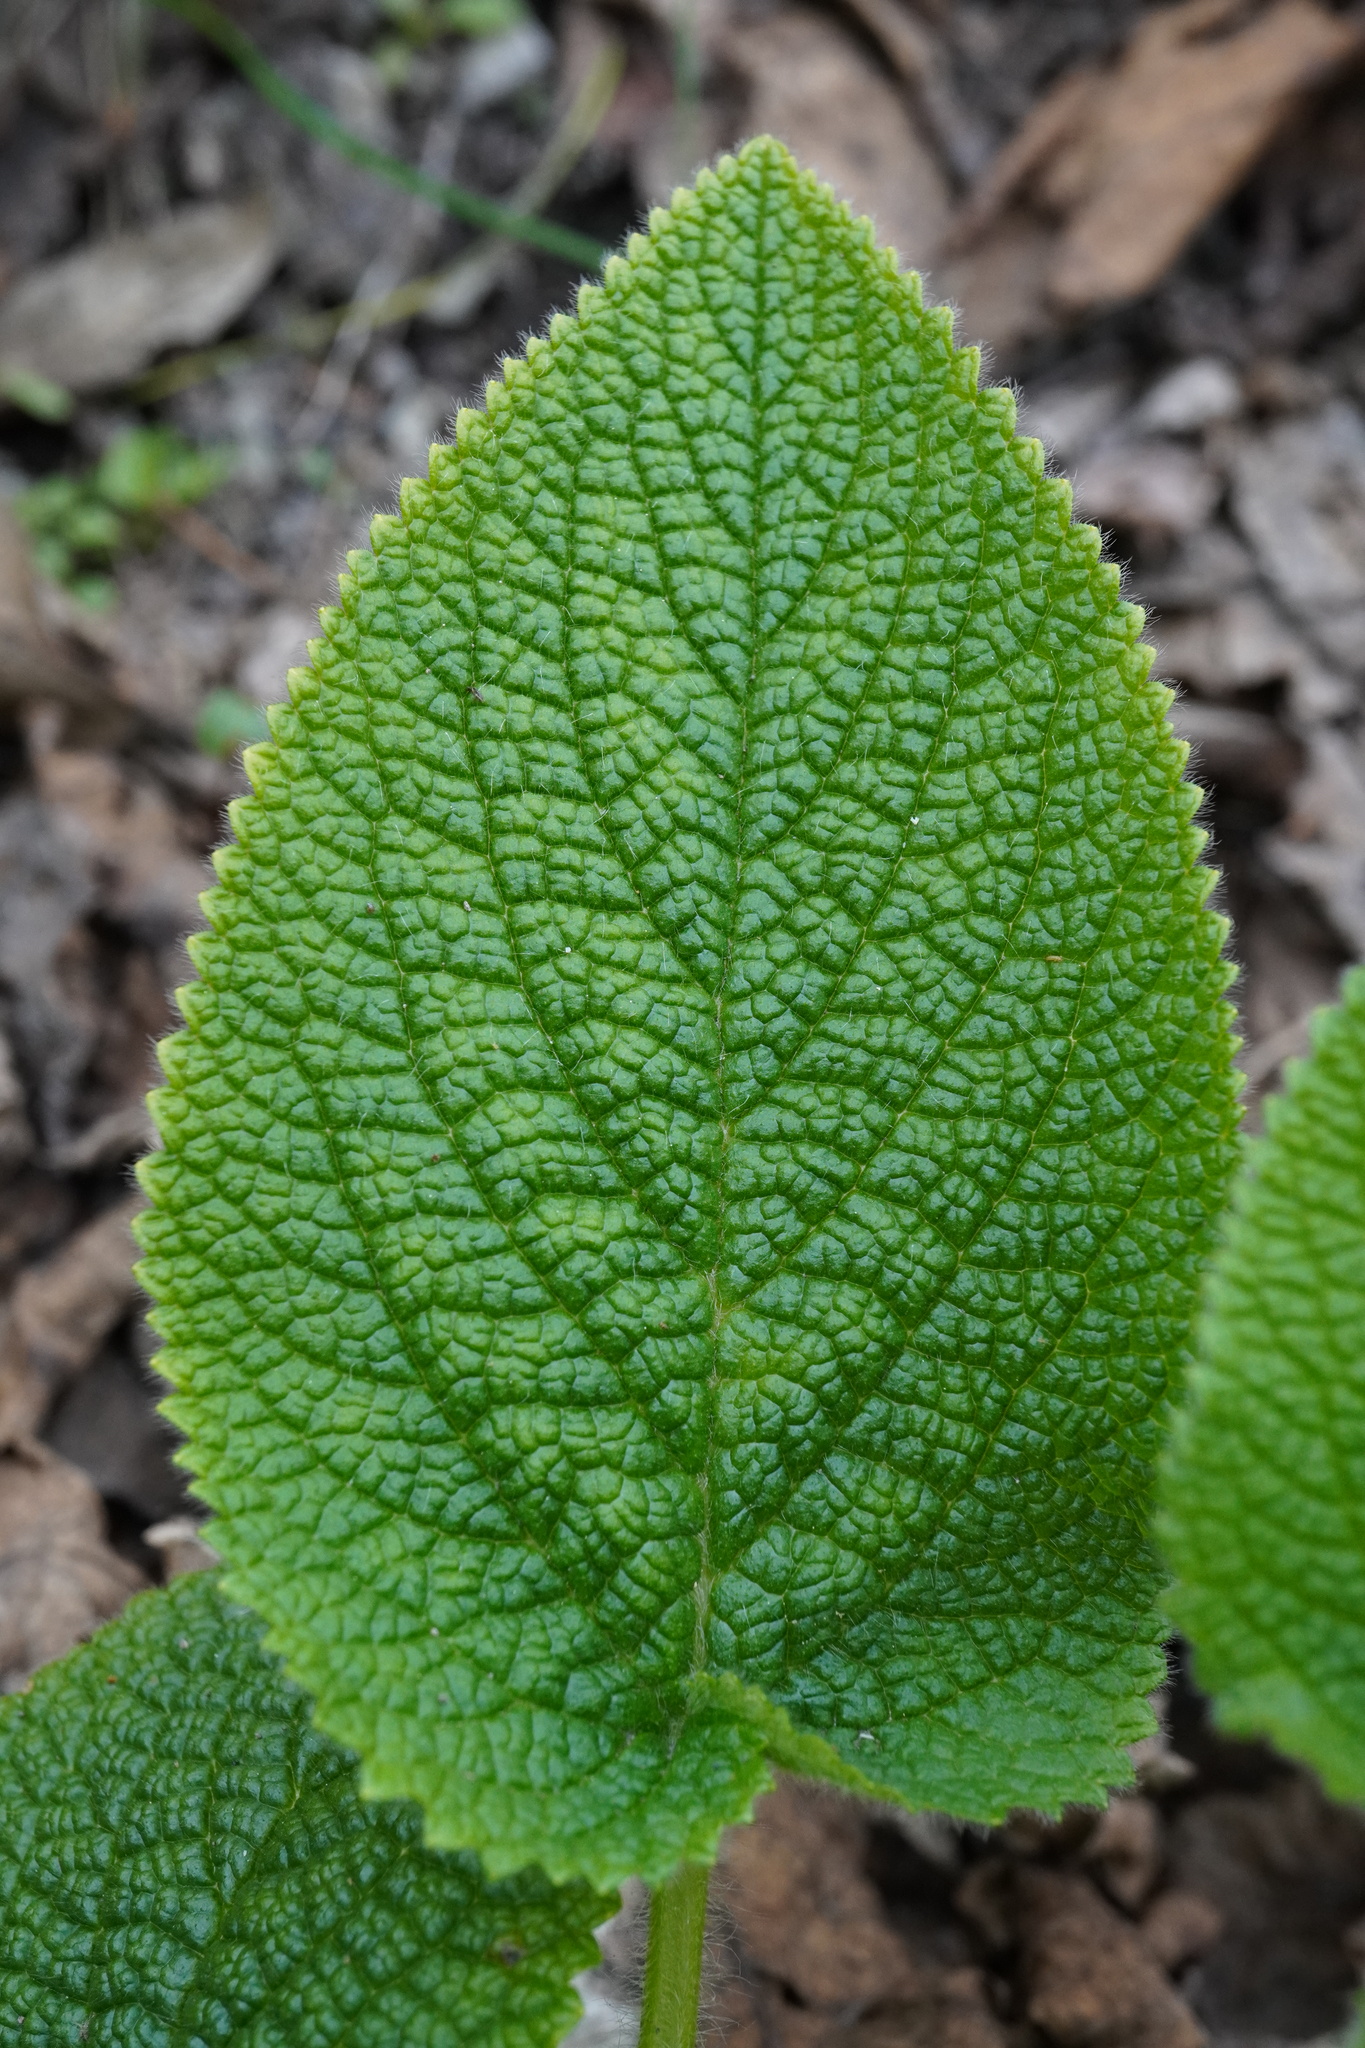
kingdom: Plantae
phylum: Tracheophyta
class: Magnoliopsida
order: Lamiales
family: Lamiaceae
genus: Stachys
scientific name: Stachys alpina
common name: Limestone woundwort
